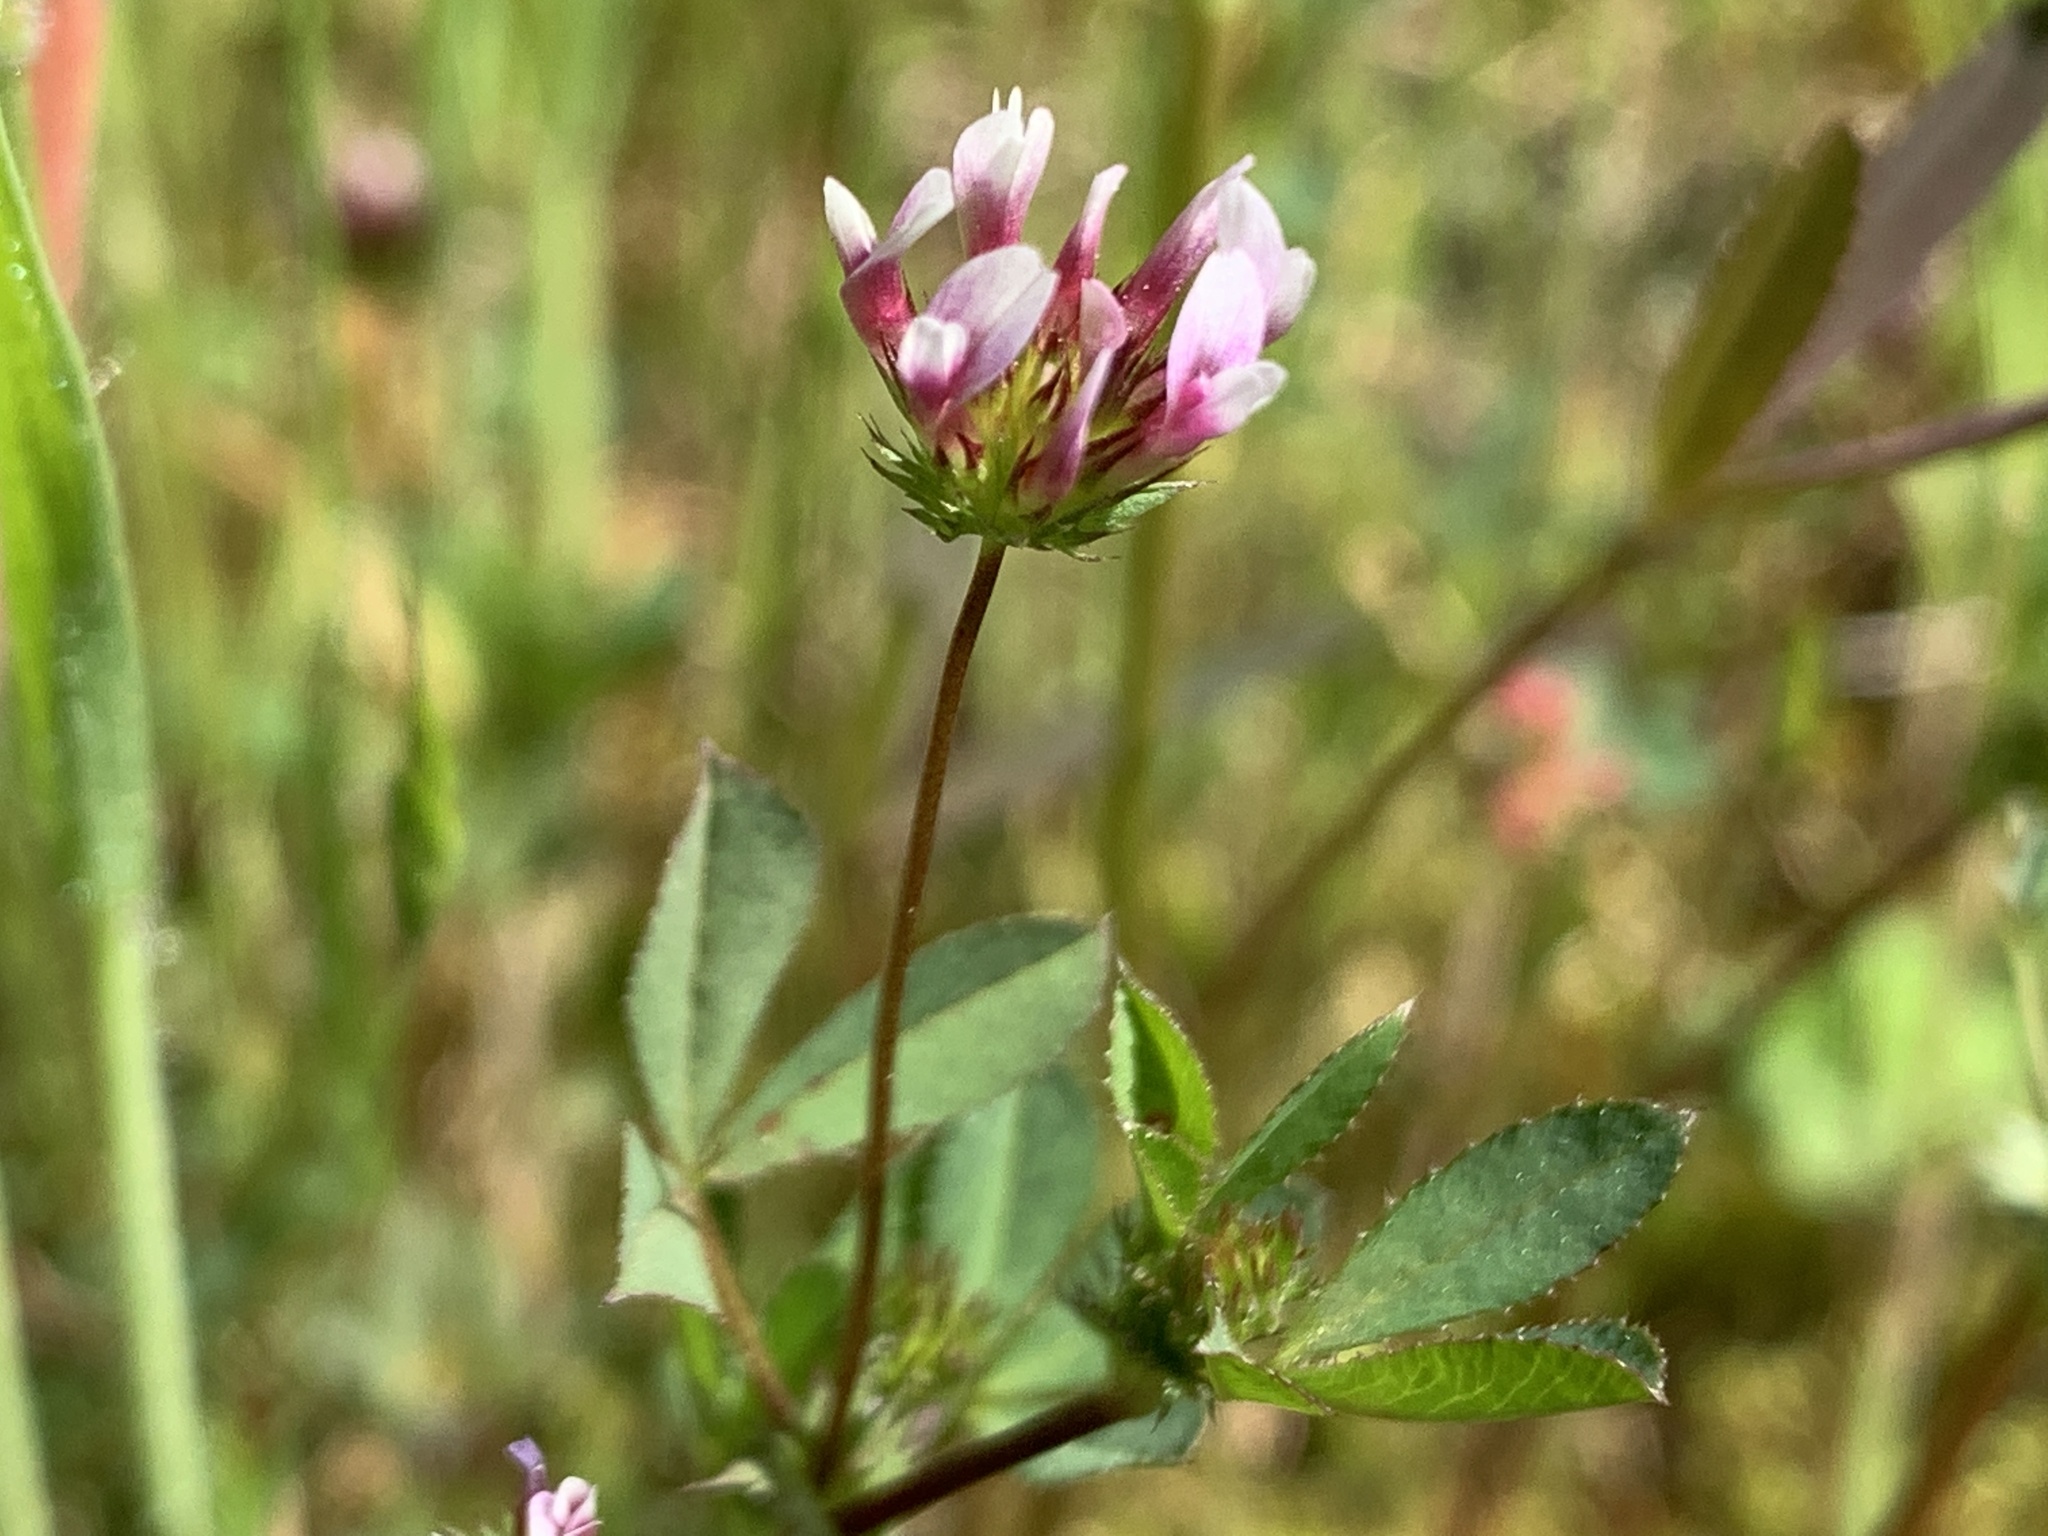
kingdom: Plantae
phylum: Tracheophyta
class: Magnoliopsida
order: Fabales
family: Fabaceae
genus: Trifolium
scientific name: Trifolium variegatum
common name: Whitetip clover
